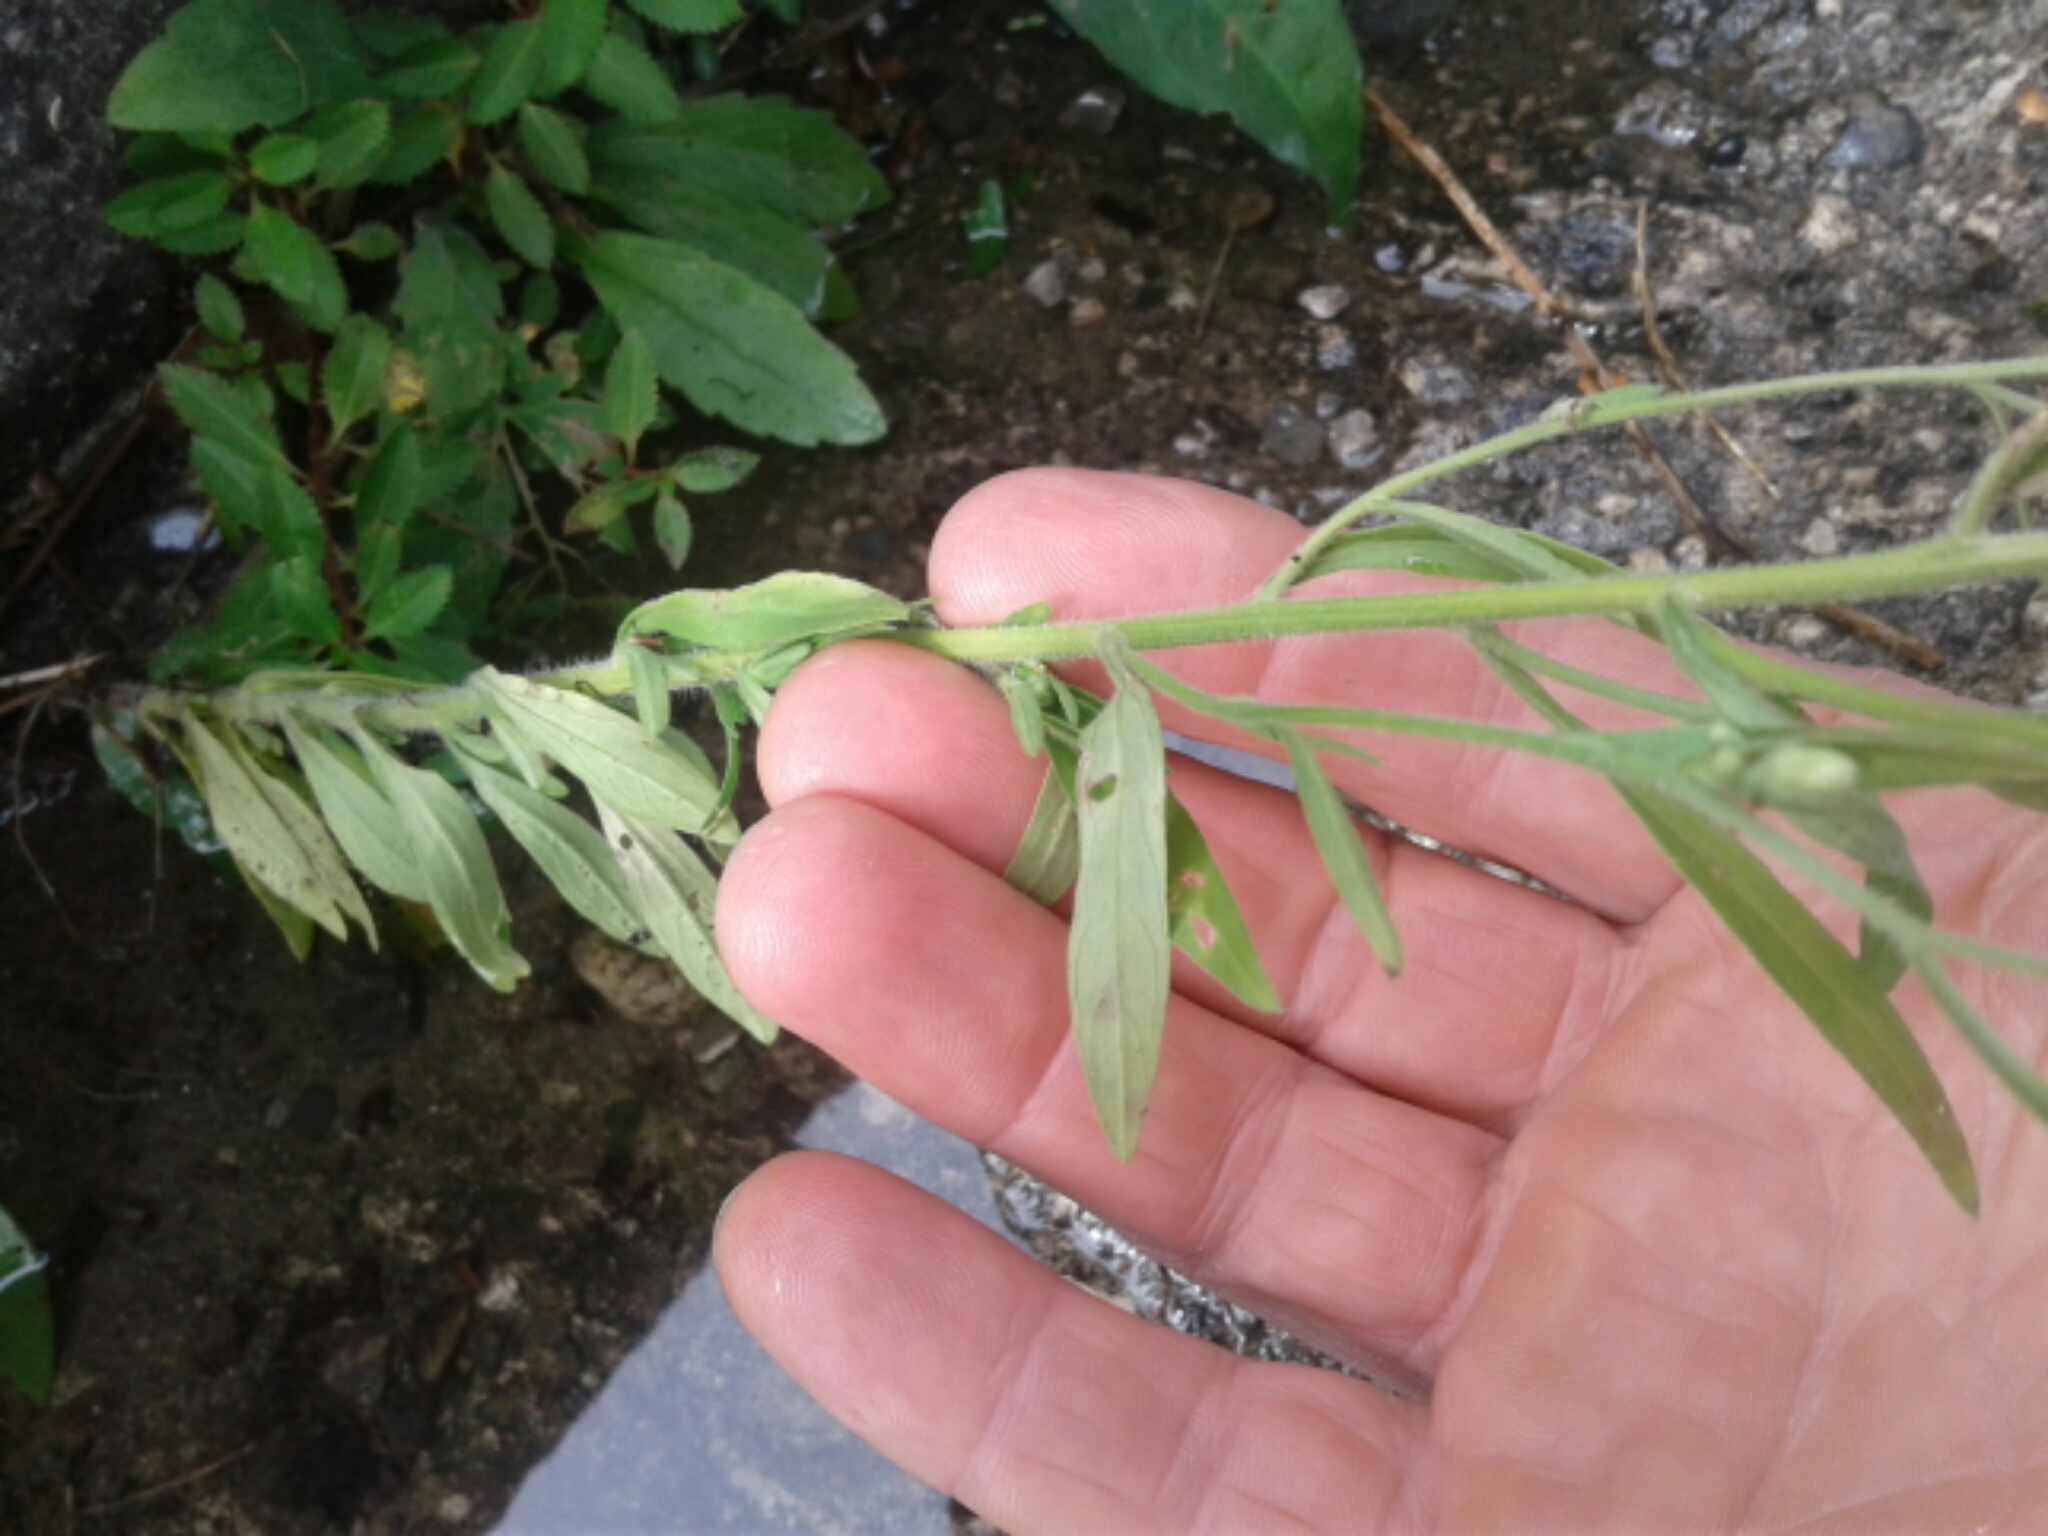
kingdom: Plantae
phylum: Tracheophyta
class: Magnoliopsida
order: Asterales
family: Asteraceae
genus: Erigeron
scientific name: Erigeron sumatrensis
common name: Daisy
